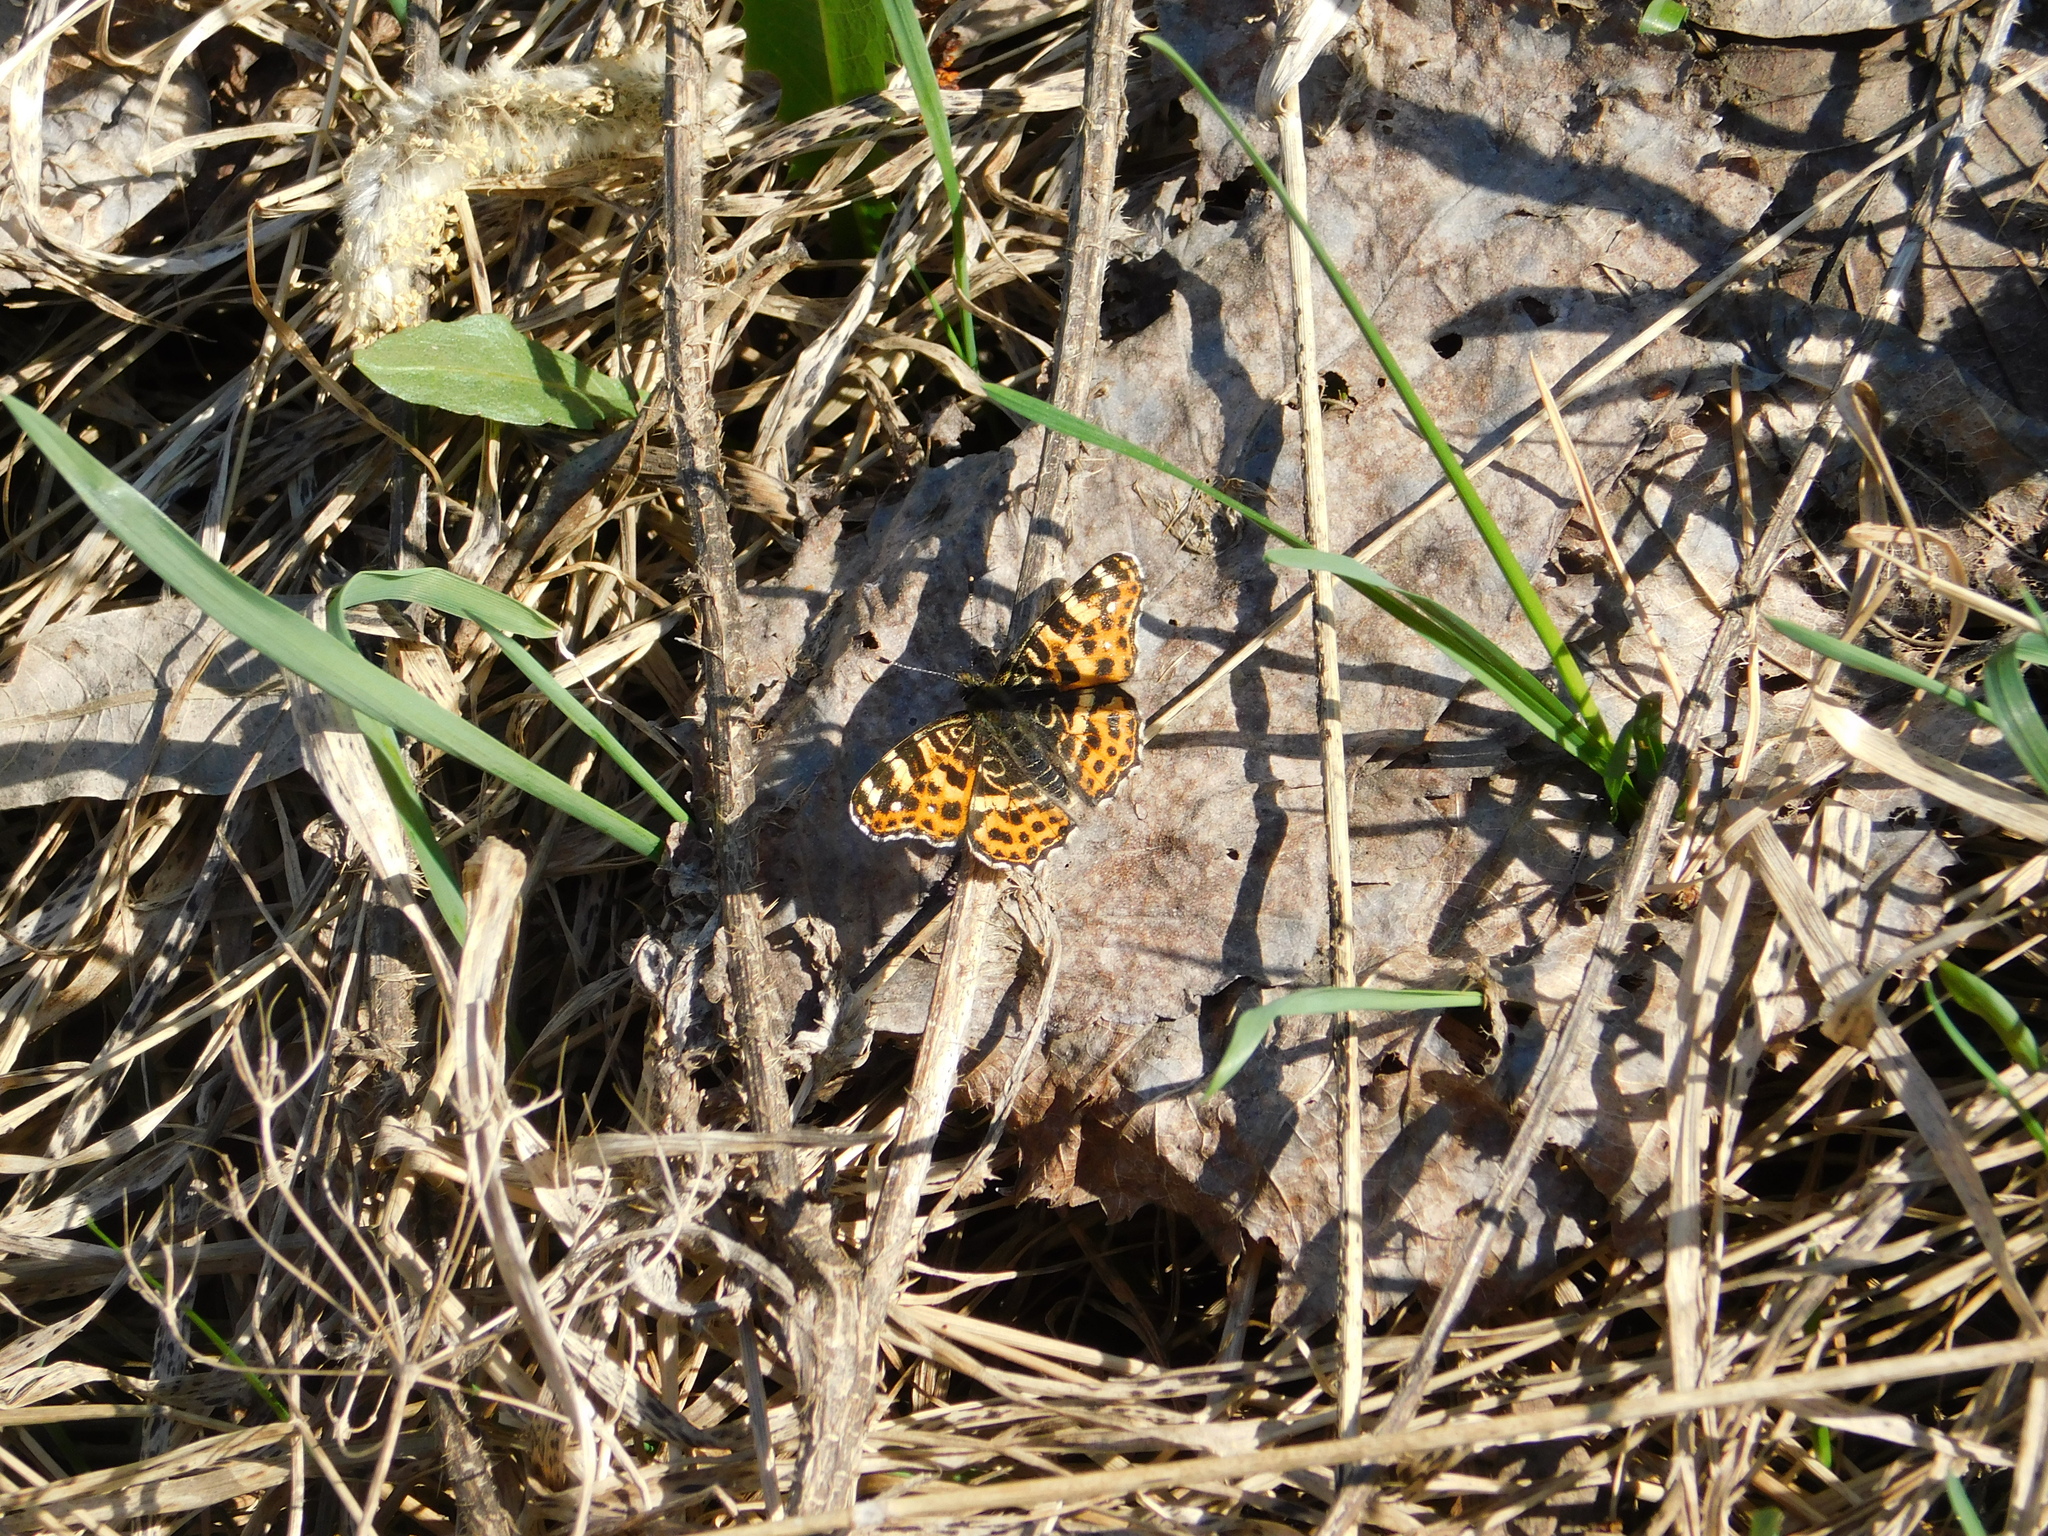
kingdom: Animalia
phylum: Arthropoda
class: Insecta
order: Lepidoptera
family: Nymphalidae
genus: Araschnia
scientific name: Araschnia levana
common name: Map butterfly
